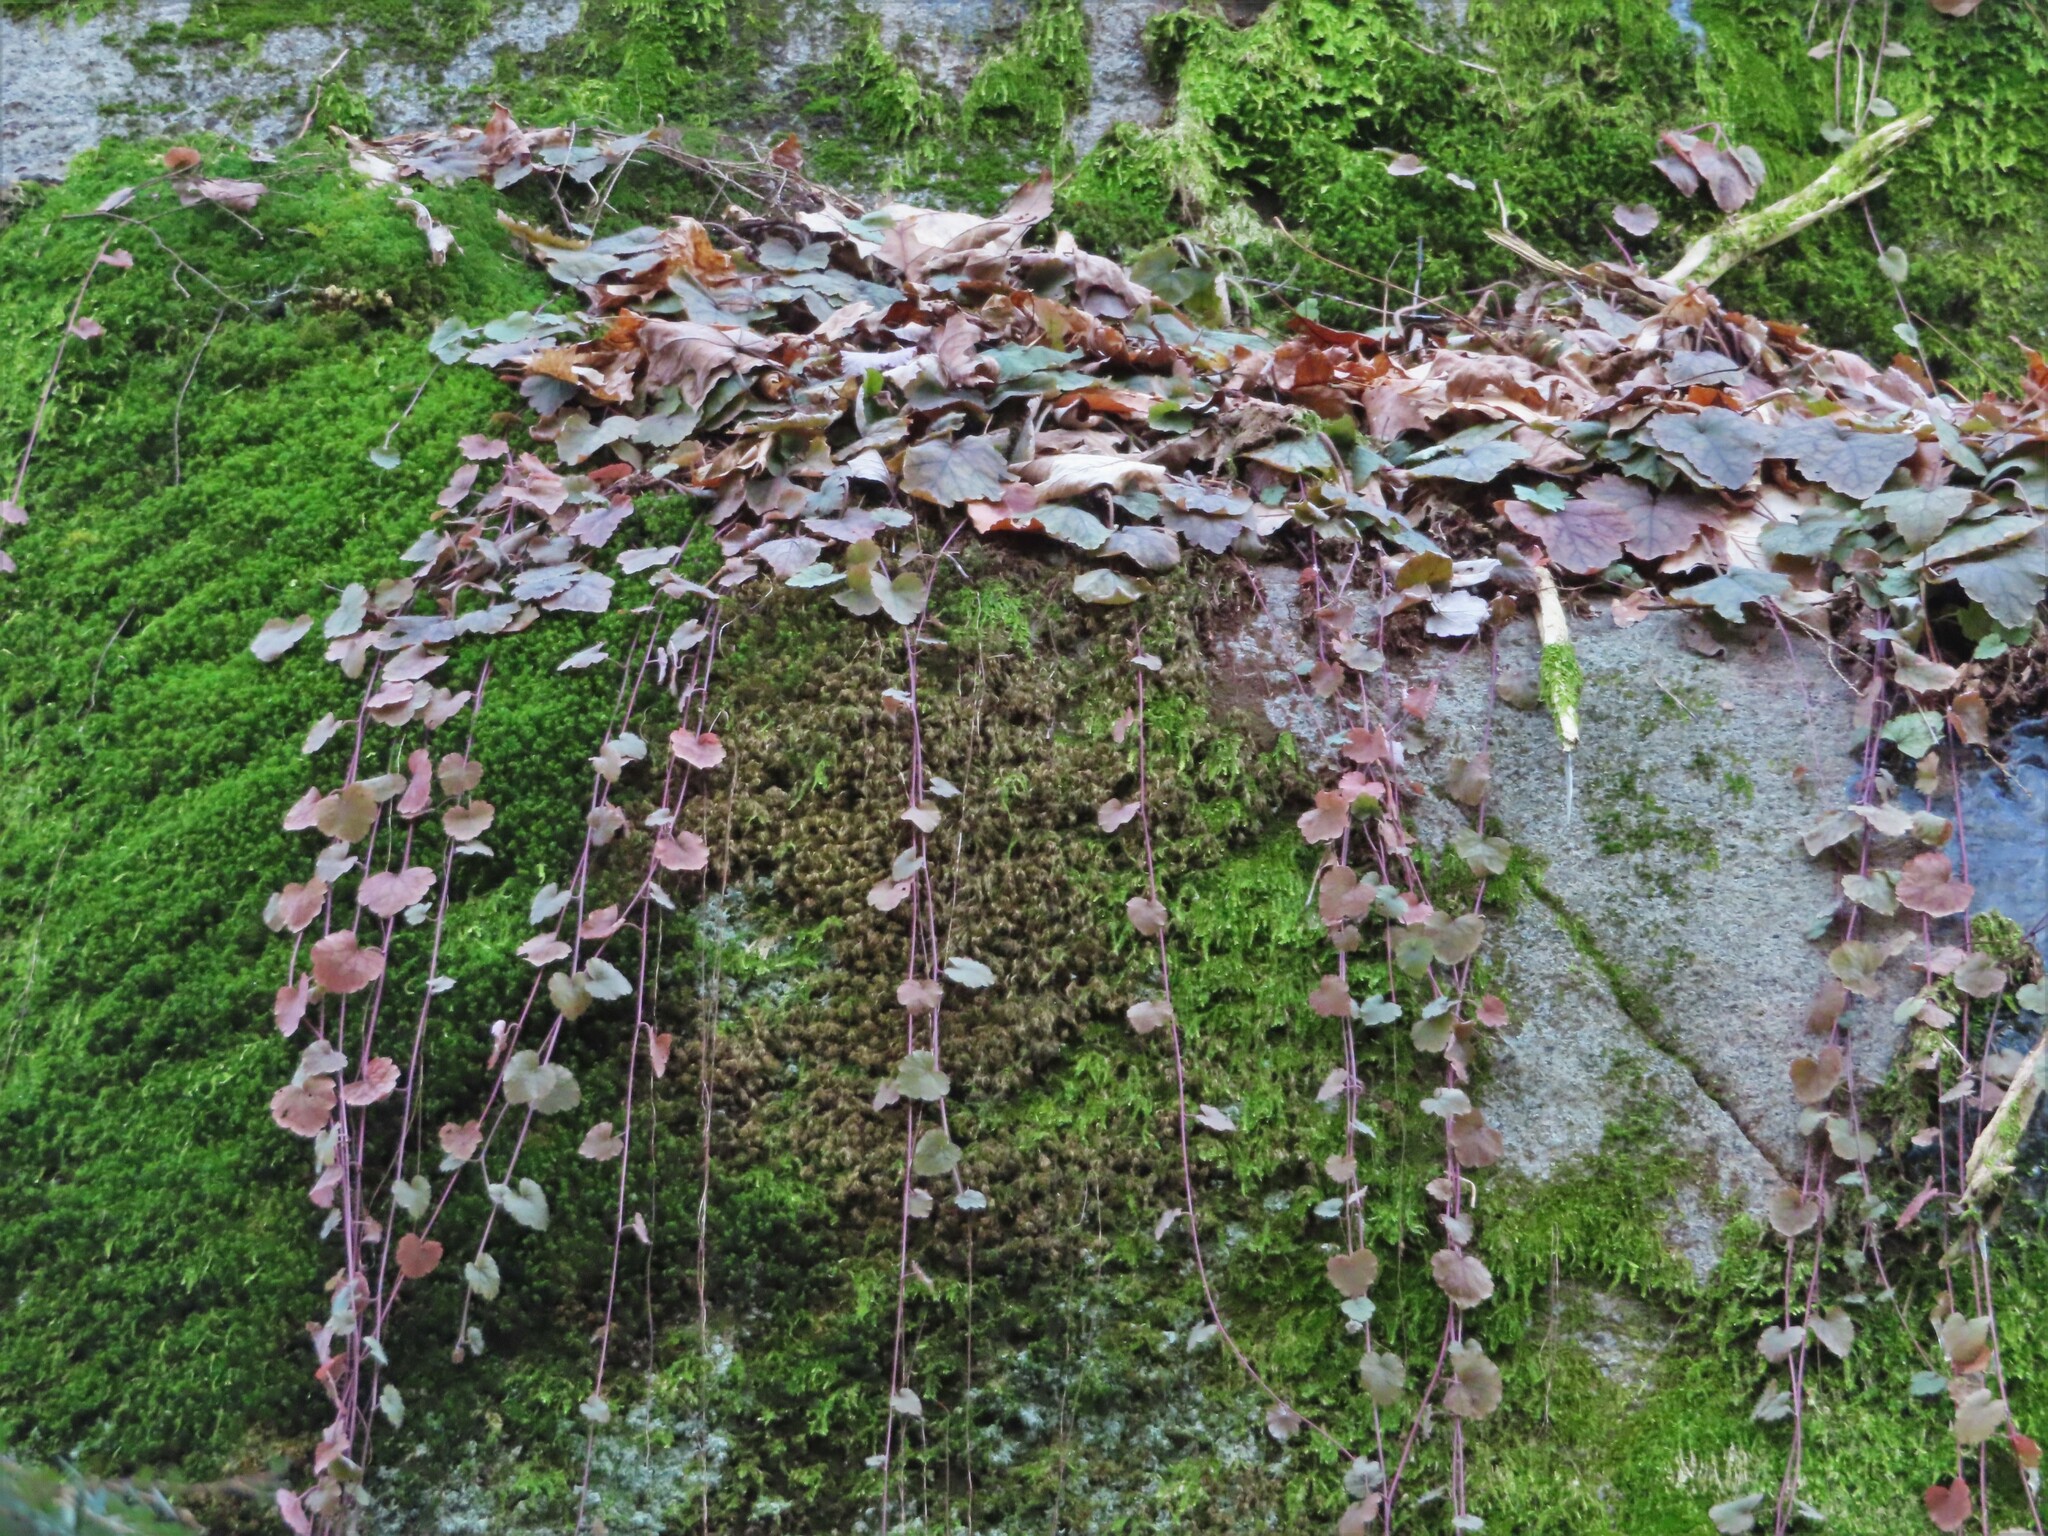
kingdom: Plantae
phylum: Tracheophyta
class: Magnoliopsida
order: Saxifragales
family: Saxifragaceae
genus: Tiarella
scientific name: Tiarella stolonifera
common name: Stoloniferous foamflower
